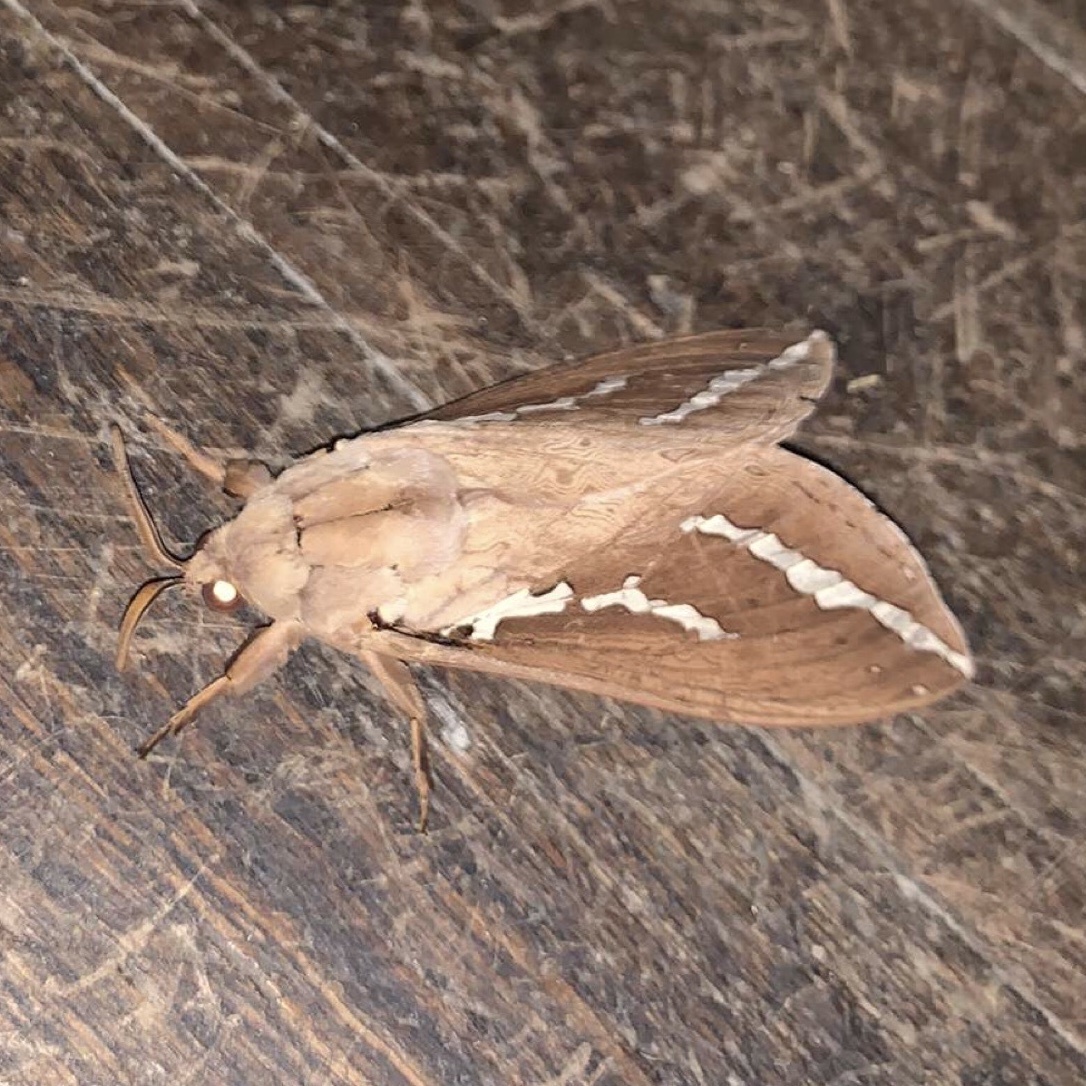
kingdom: Animalia
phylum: Arthropoda
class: Insecta
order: Lepidoptera
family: Hepialidae
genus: Abantiades
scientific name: Abantiades argyrosticha
